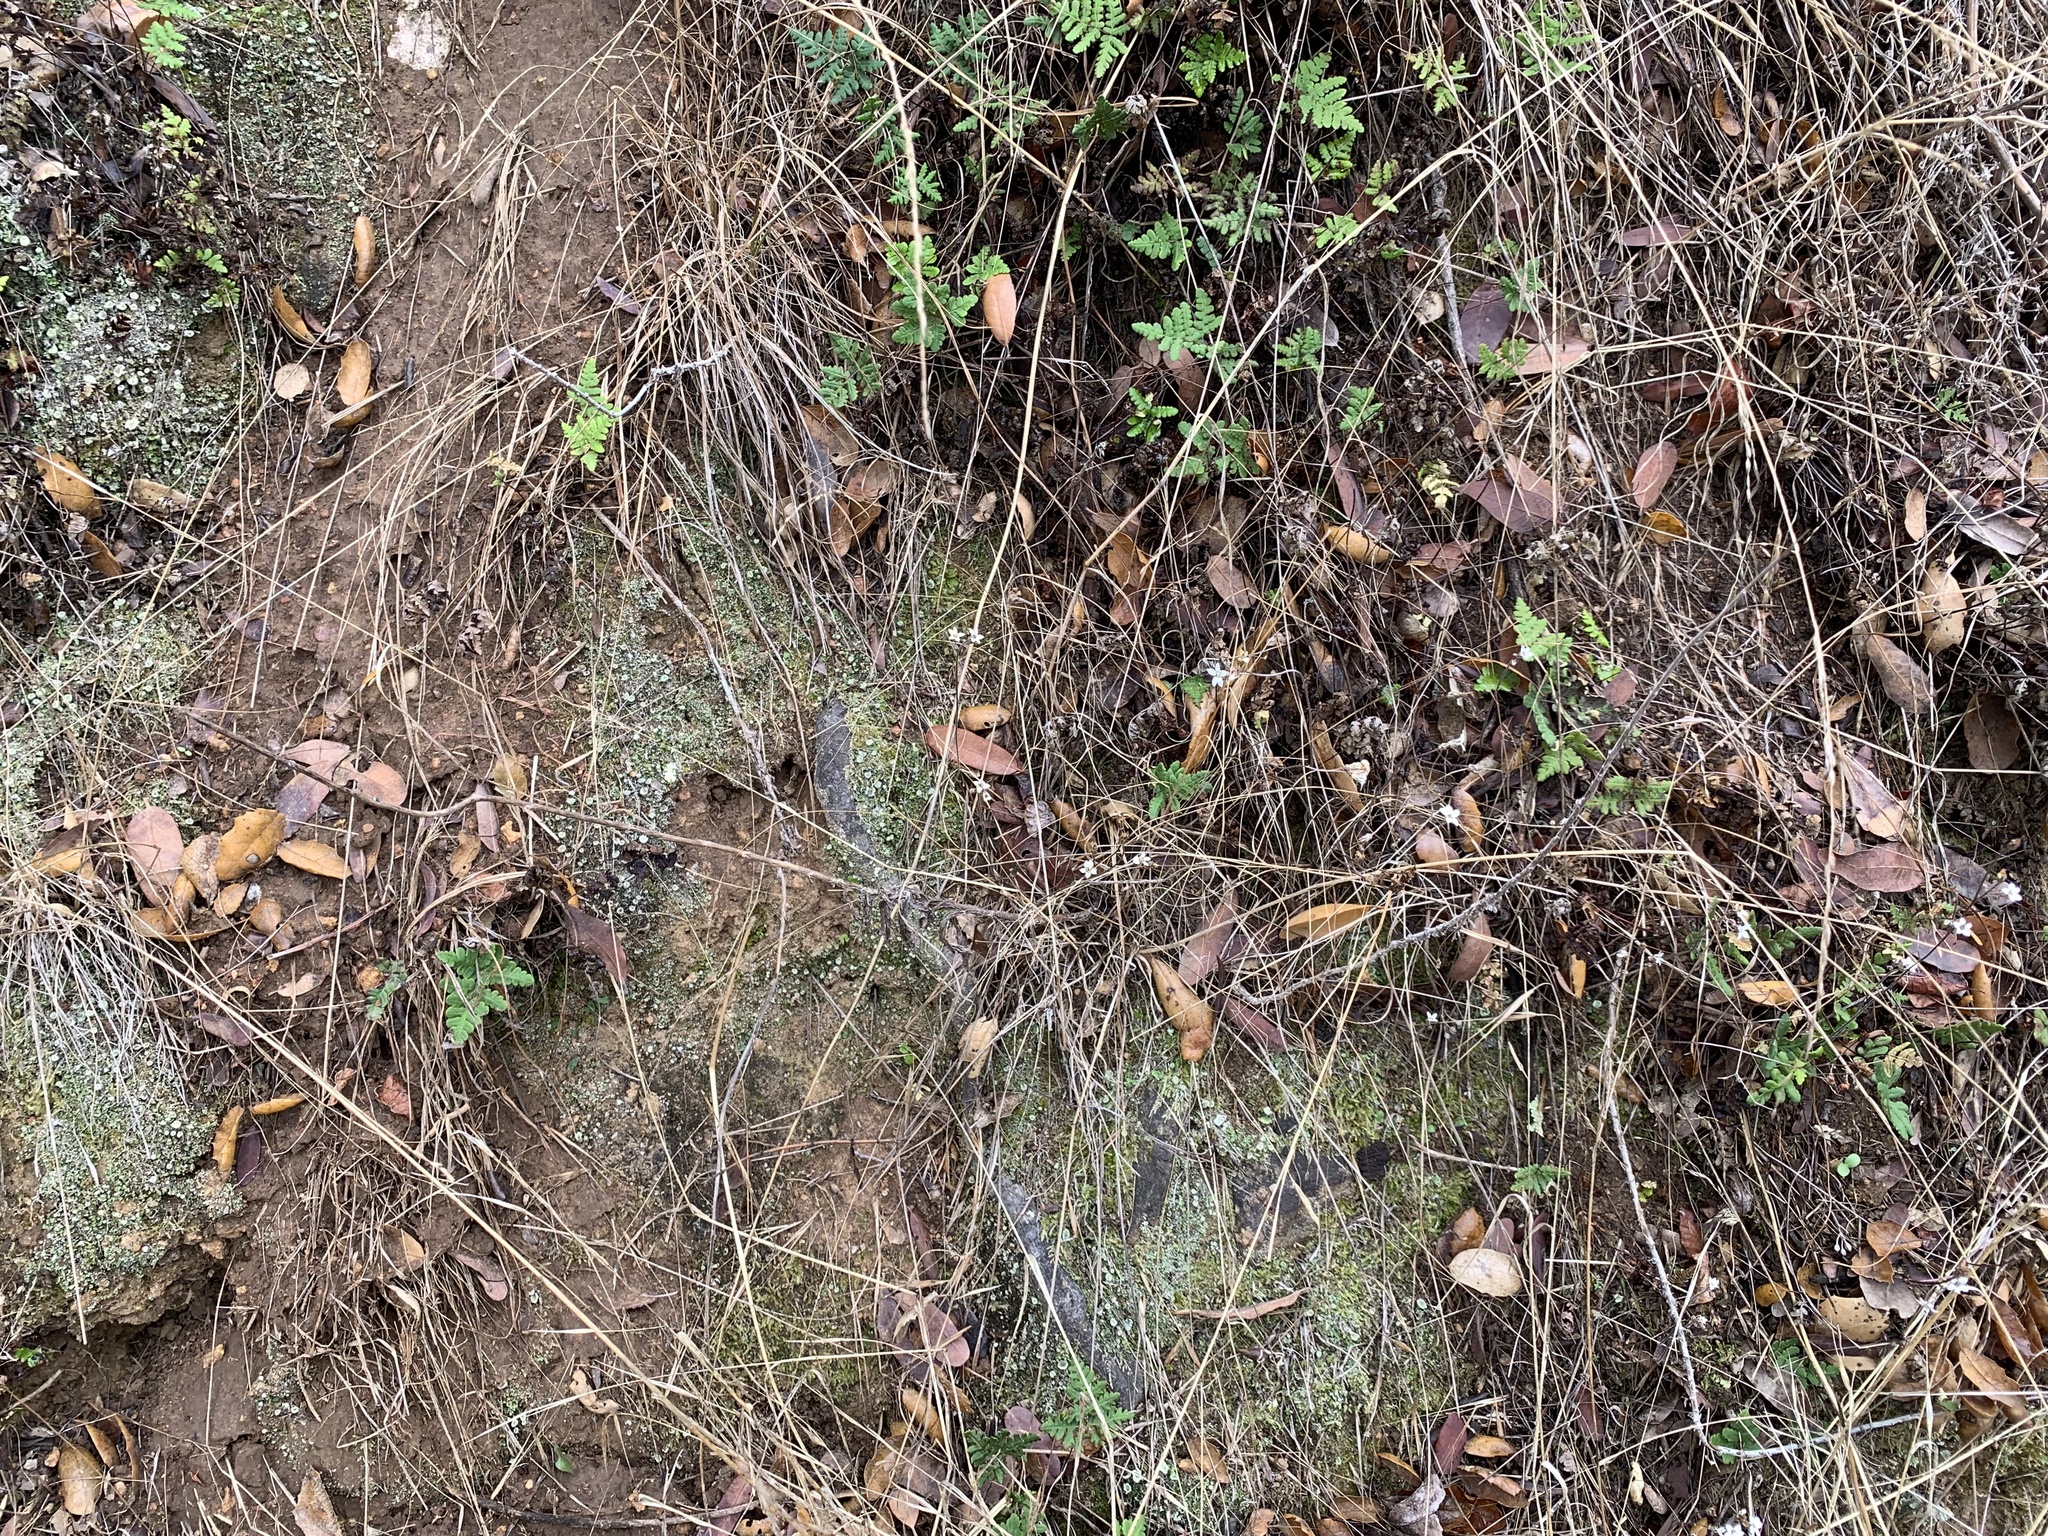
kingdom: Plantae
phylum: Tracheophyta
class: Magnoliopsida
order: Saxifragales
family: Saxifragaceae
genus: Jepsonia
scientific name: Jepsonia parryi
